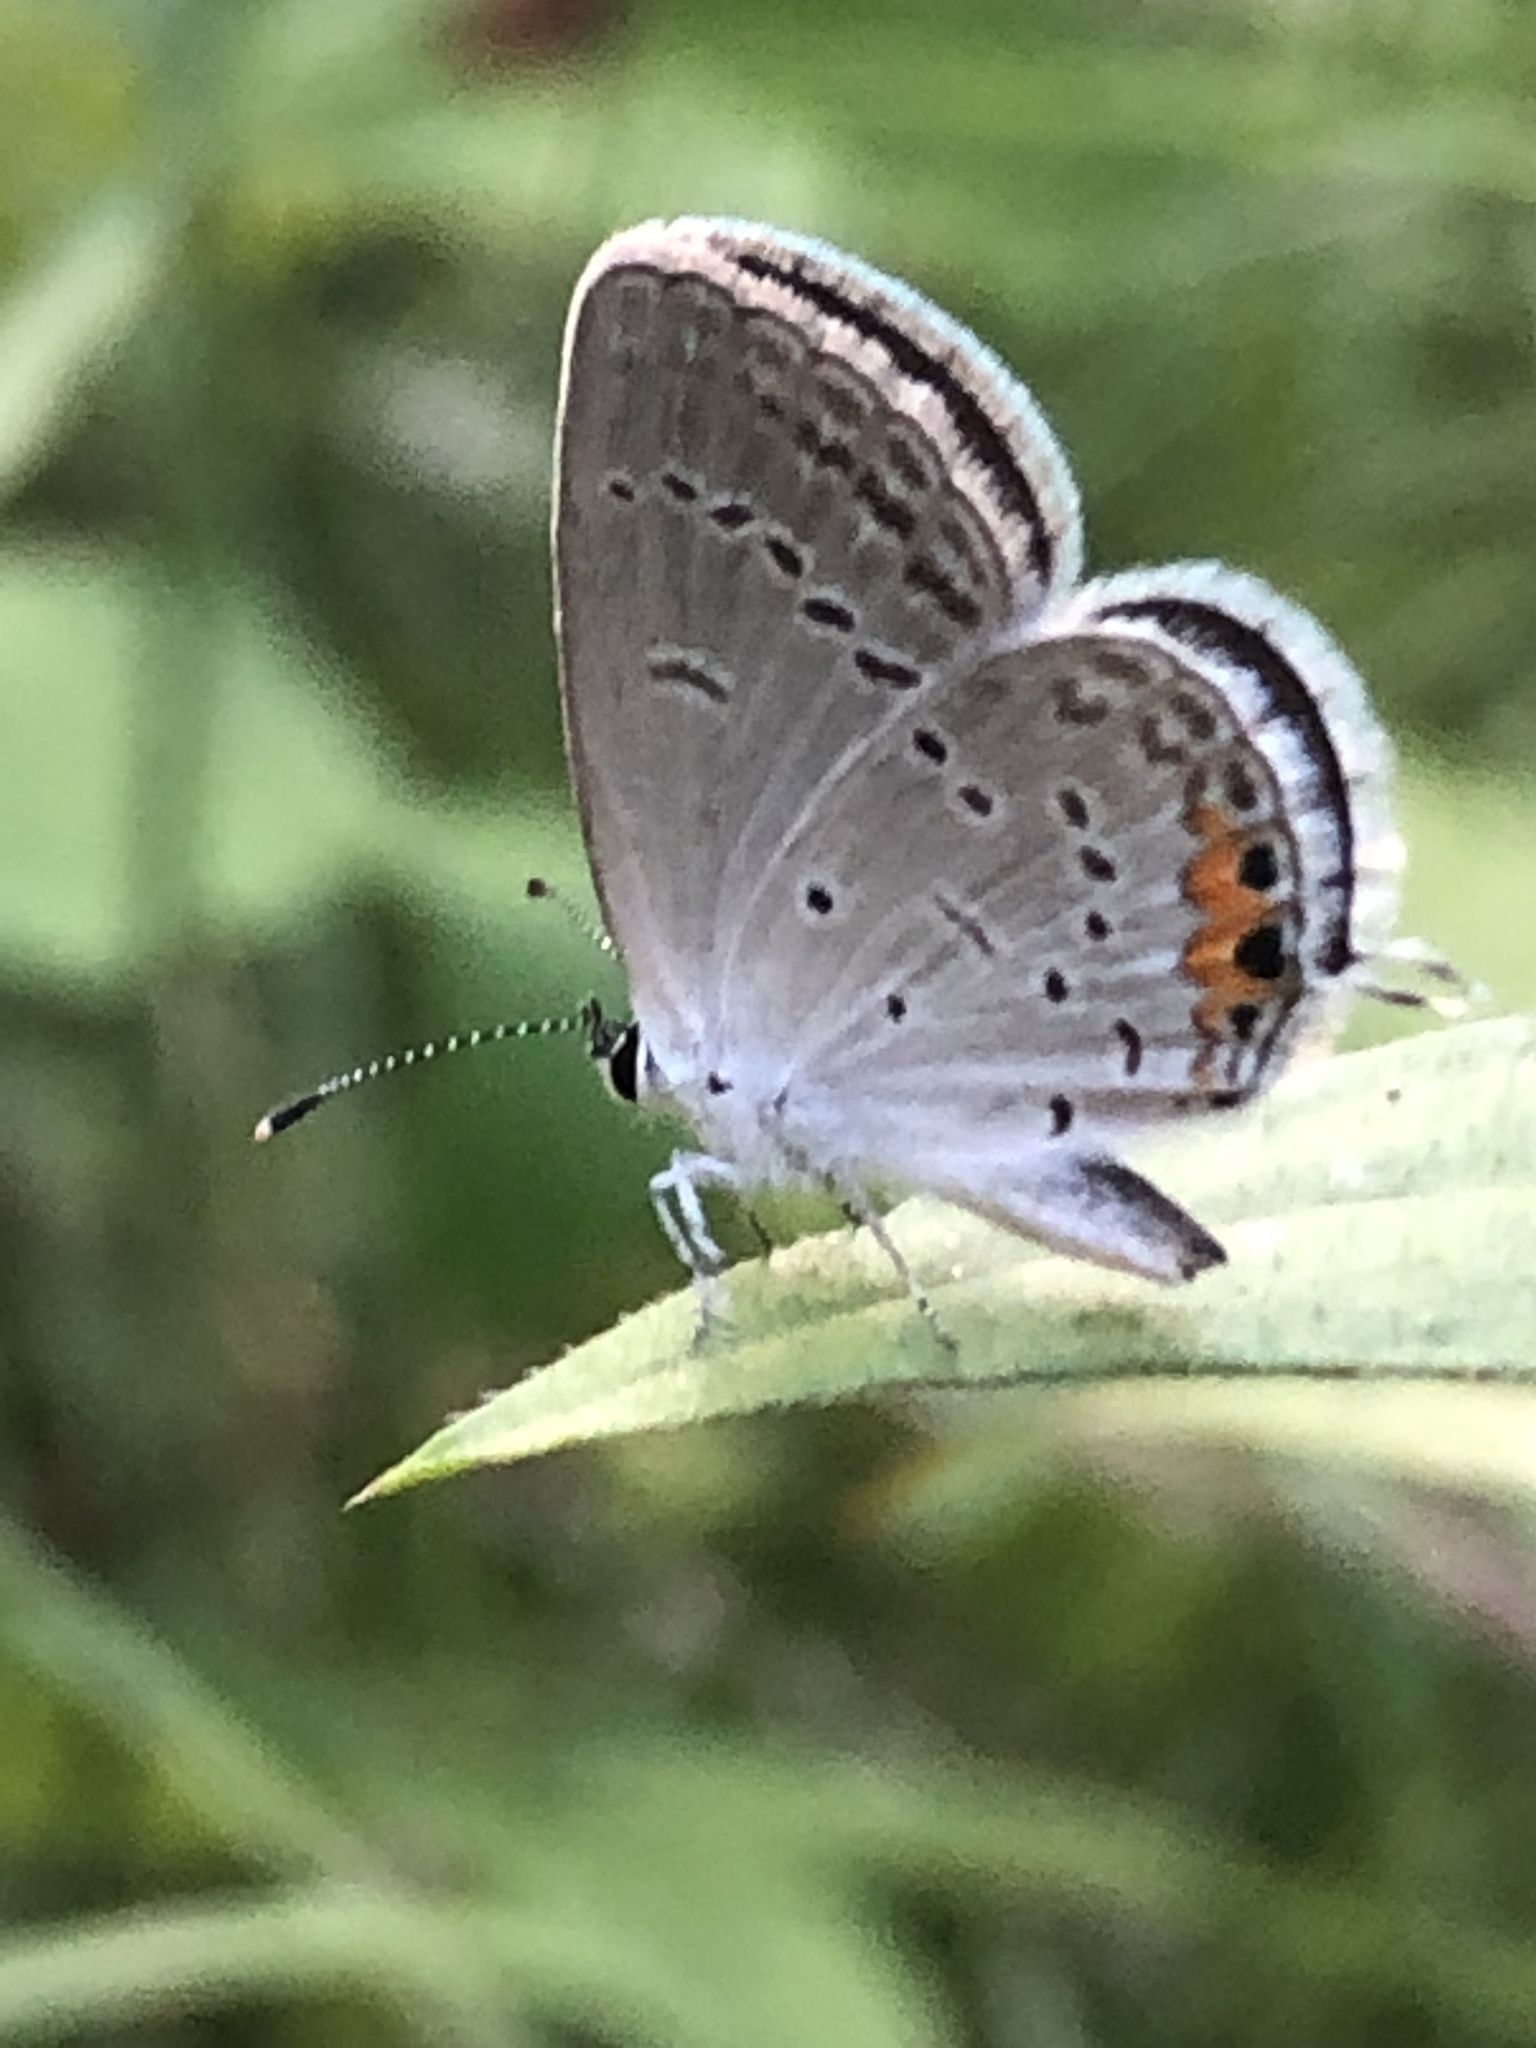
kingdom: Animalia
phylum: Arthropoda
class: Insecta
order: Lepidoptera
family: Lycaenidae
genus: Elkalyce
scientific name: Elkalyce comyntas
